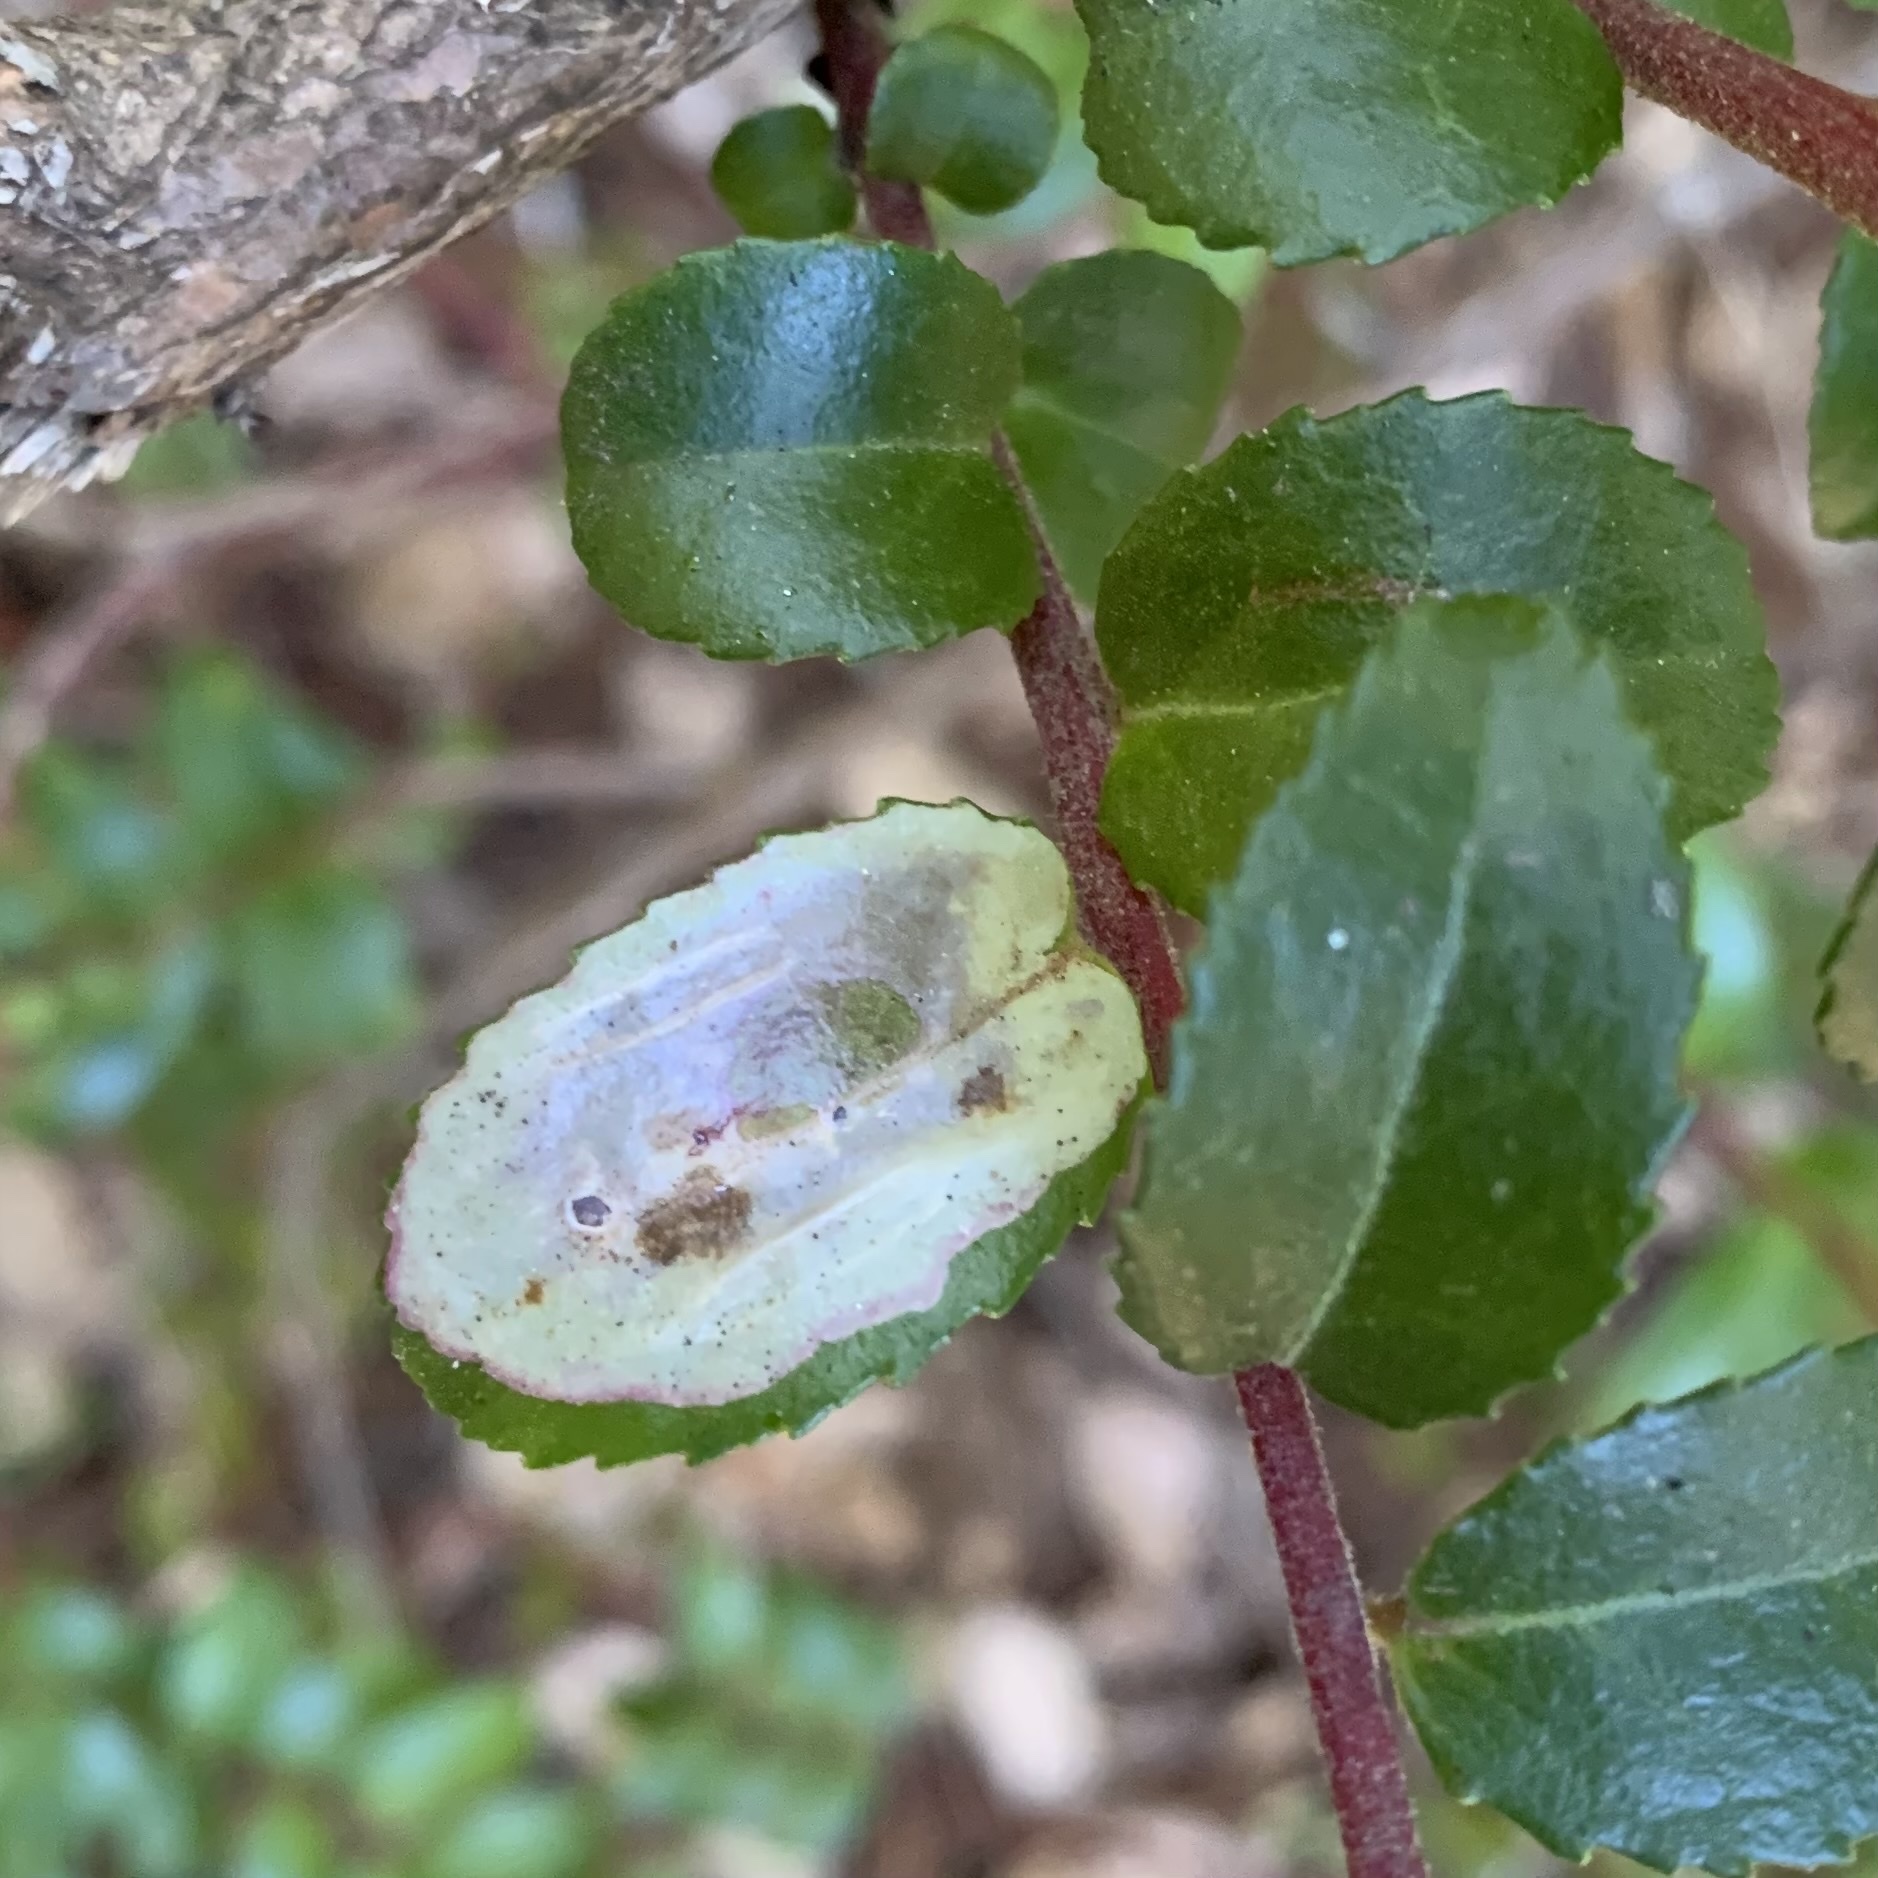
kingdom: Animalia
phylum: Arthropoda
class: Insecta
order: Lepidoptera
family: Gracillariidae
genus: Cameraria
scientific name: Cameraria nemoris
